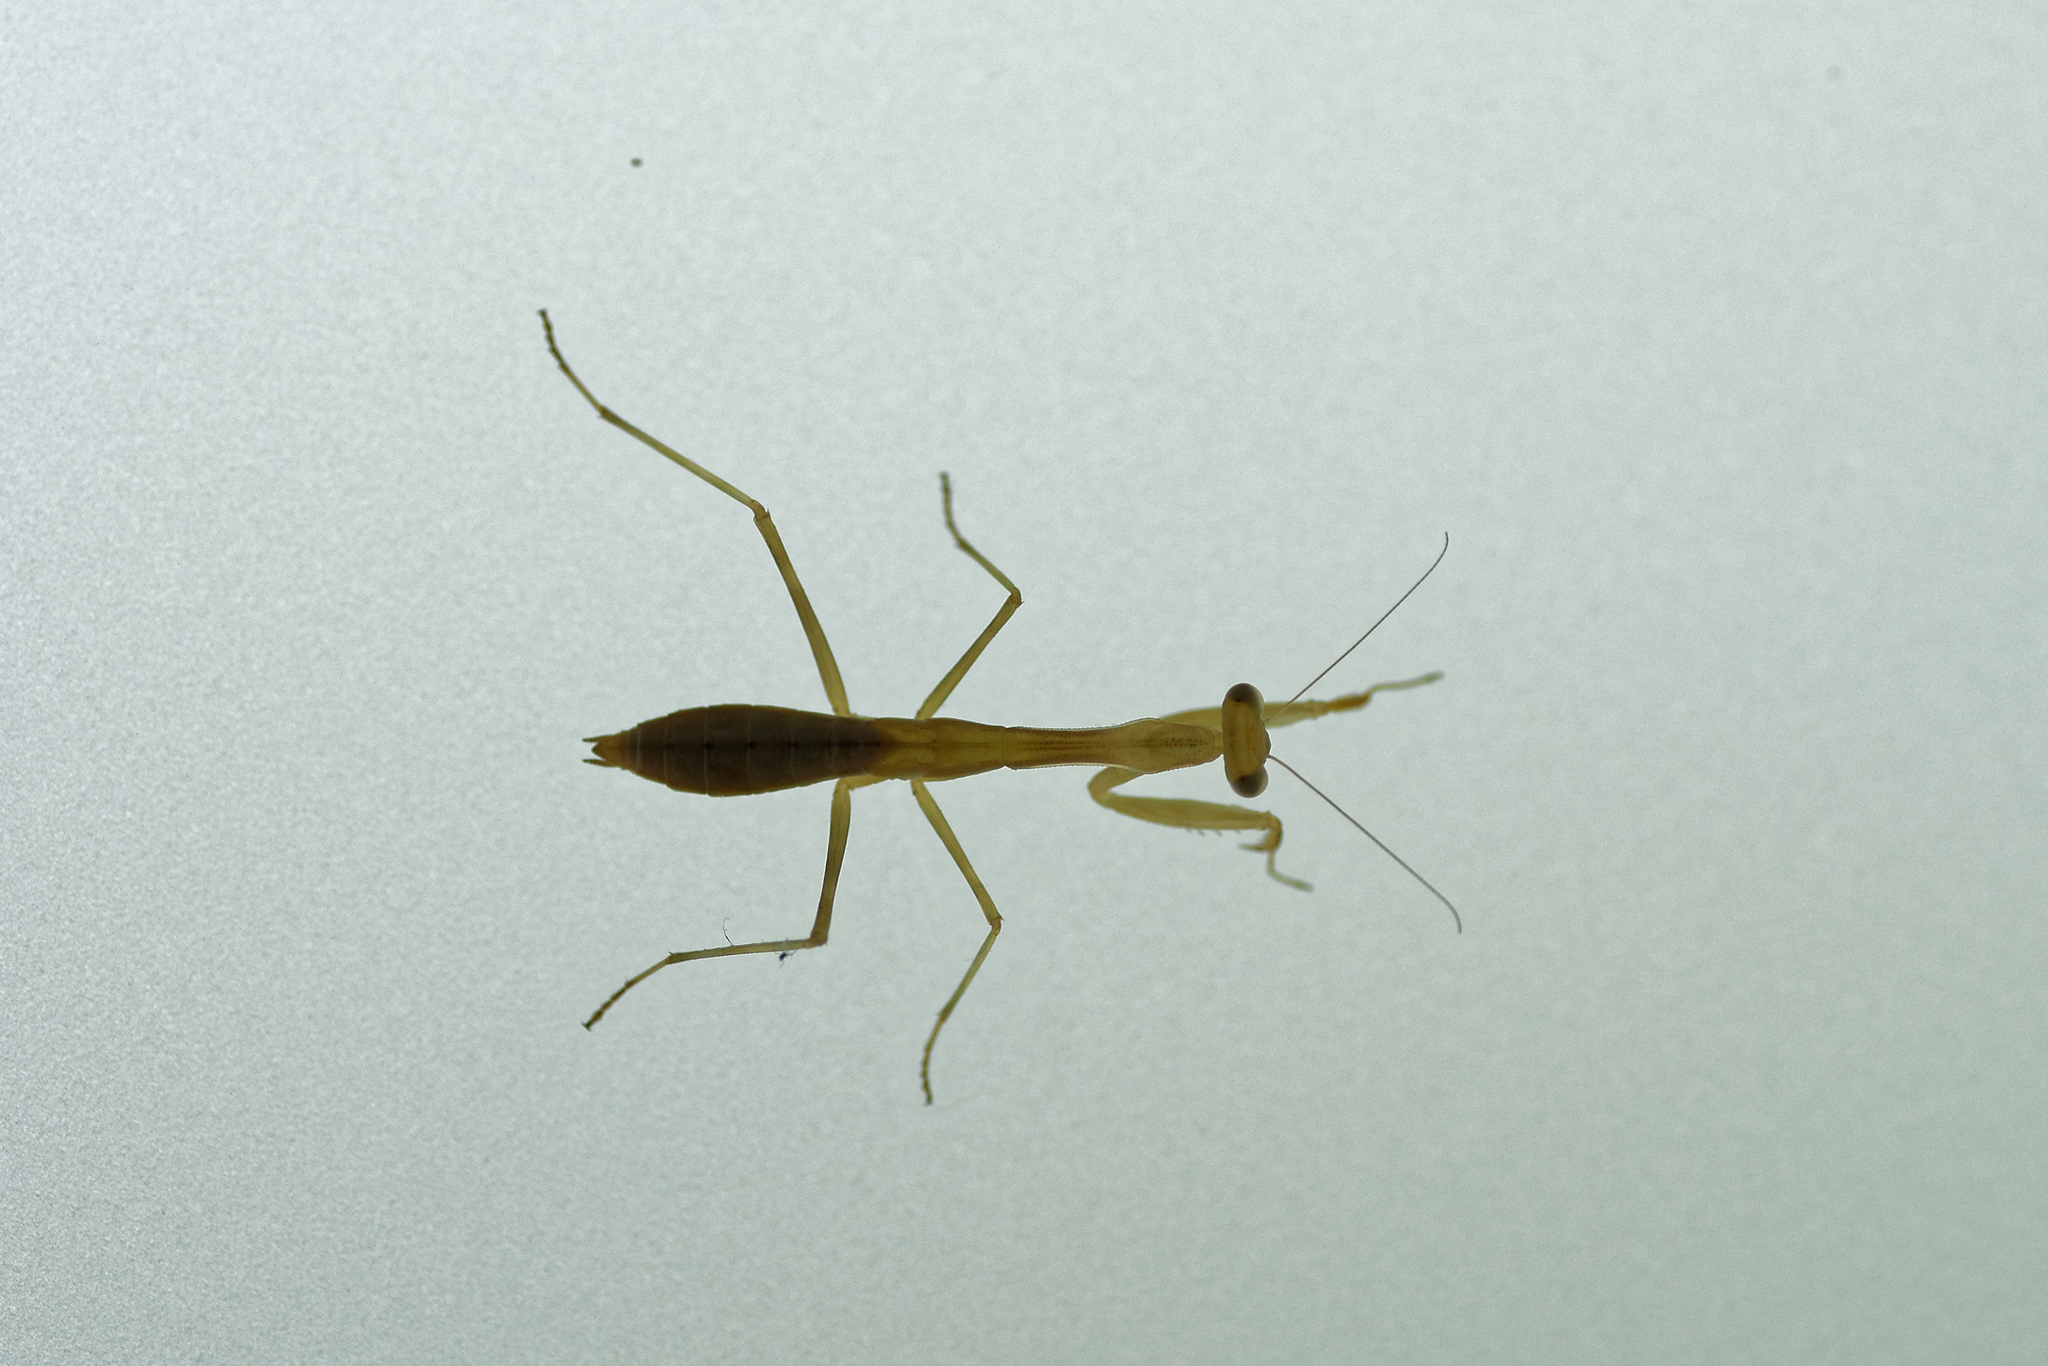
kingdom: Animalia
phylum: Arthropoda
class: Insecta
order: Mantodea
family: Miomantidae
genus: Miomantis
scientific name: Miomantis caffra
